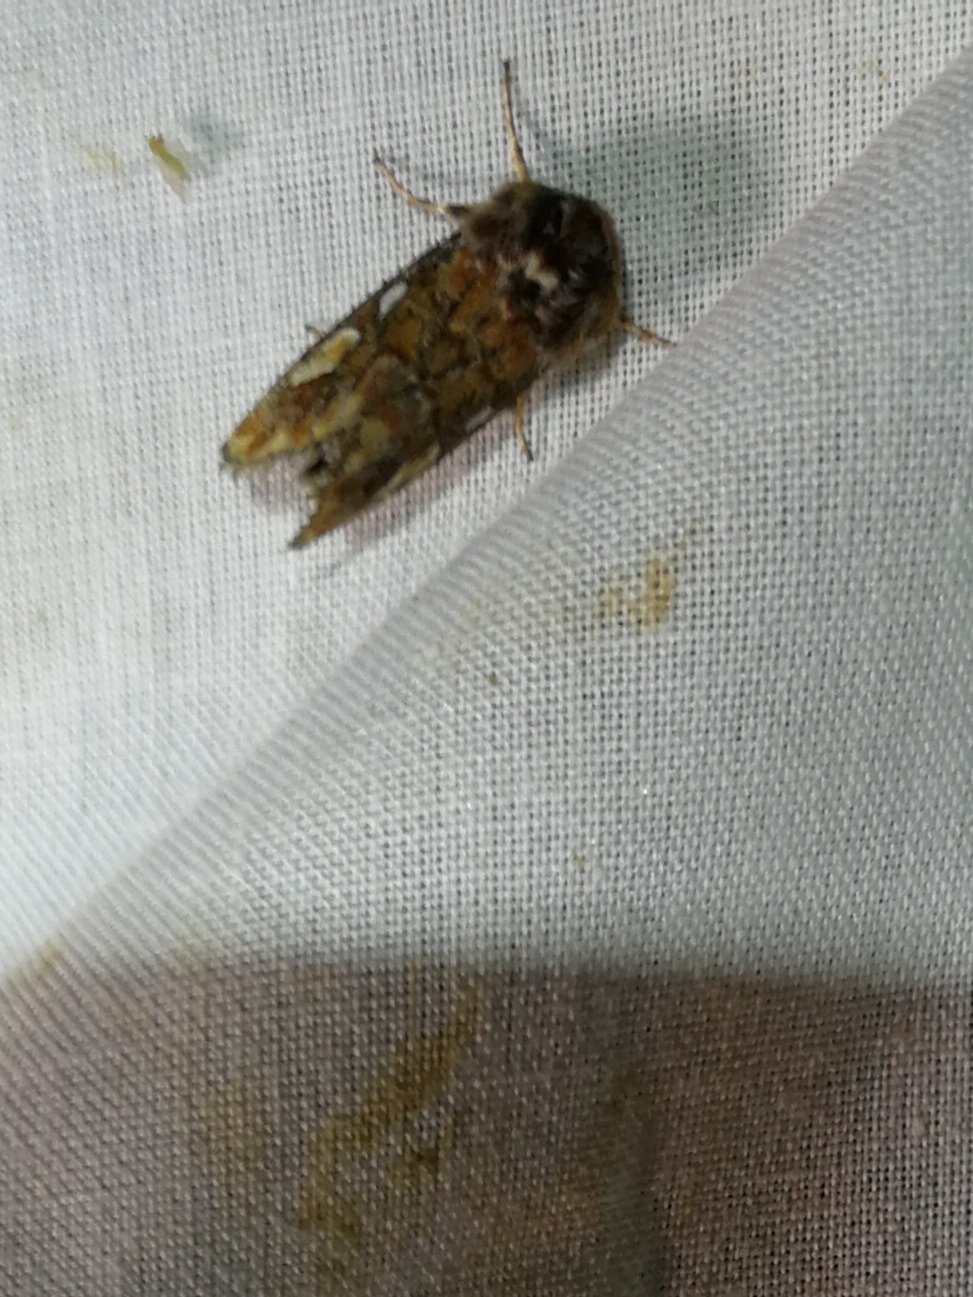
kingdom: Animalia
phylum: Arthropoda
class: Insecta
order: Lepidoptera
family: Noctuidae
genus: Panolis
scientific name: Panolis flammea
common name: Pine beauty
